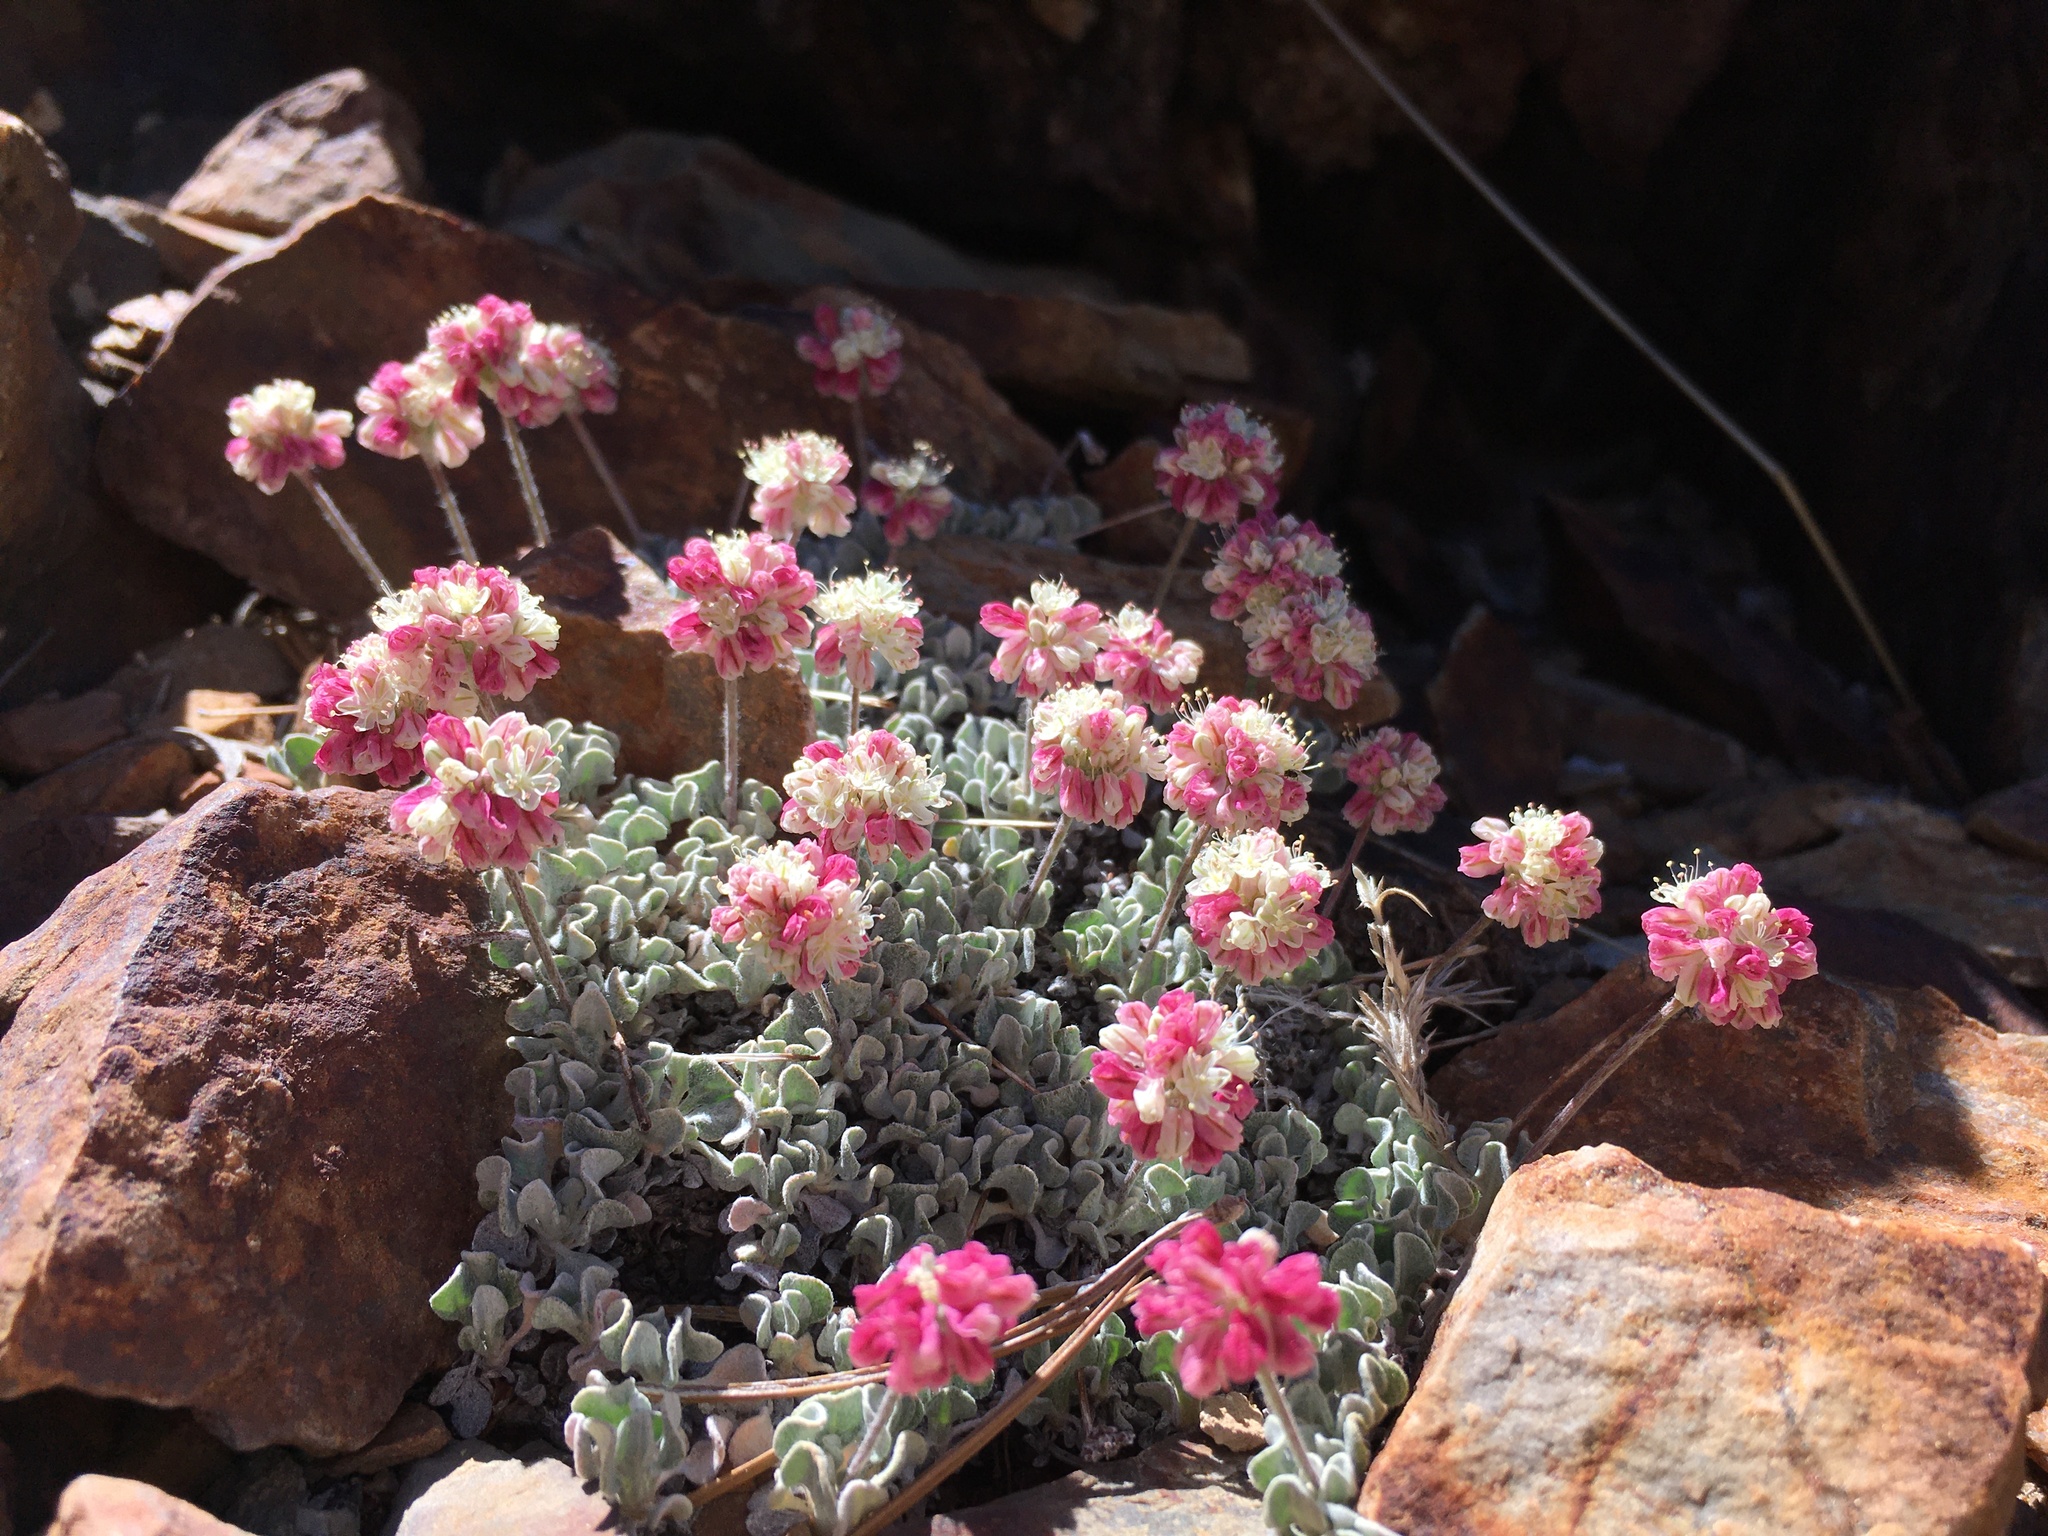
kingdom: Plantae
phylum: Tracheophyta
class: Magnoliopsida
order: Caryophyllales
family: Polygonaceae
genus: Eriogonum
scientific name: Eriogonum ovalifolium
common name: Cushion buckwheat
